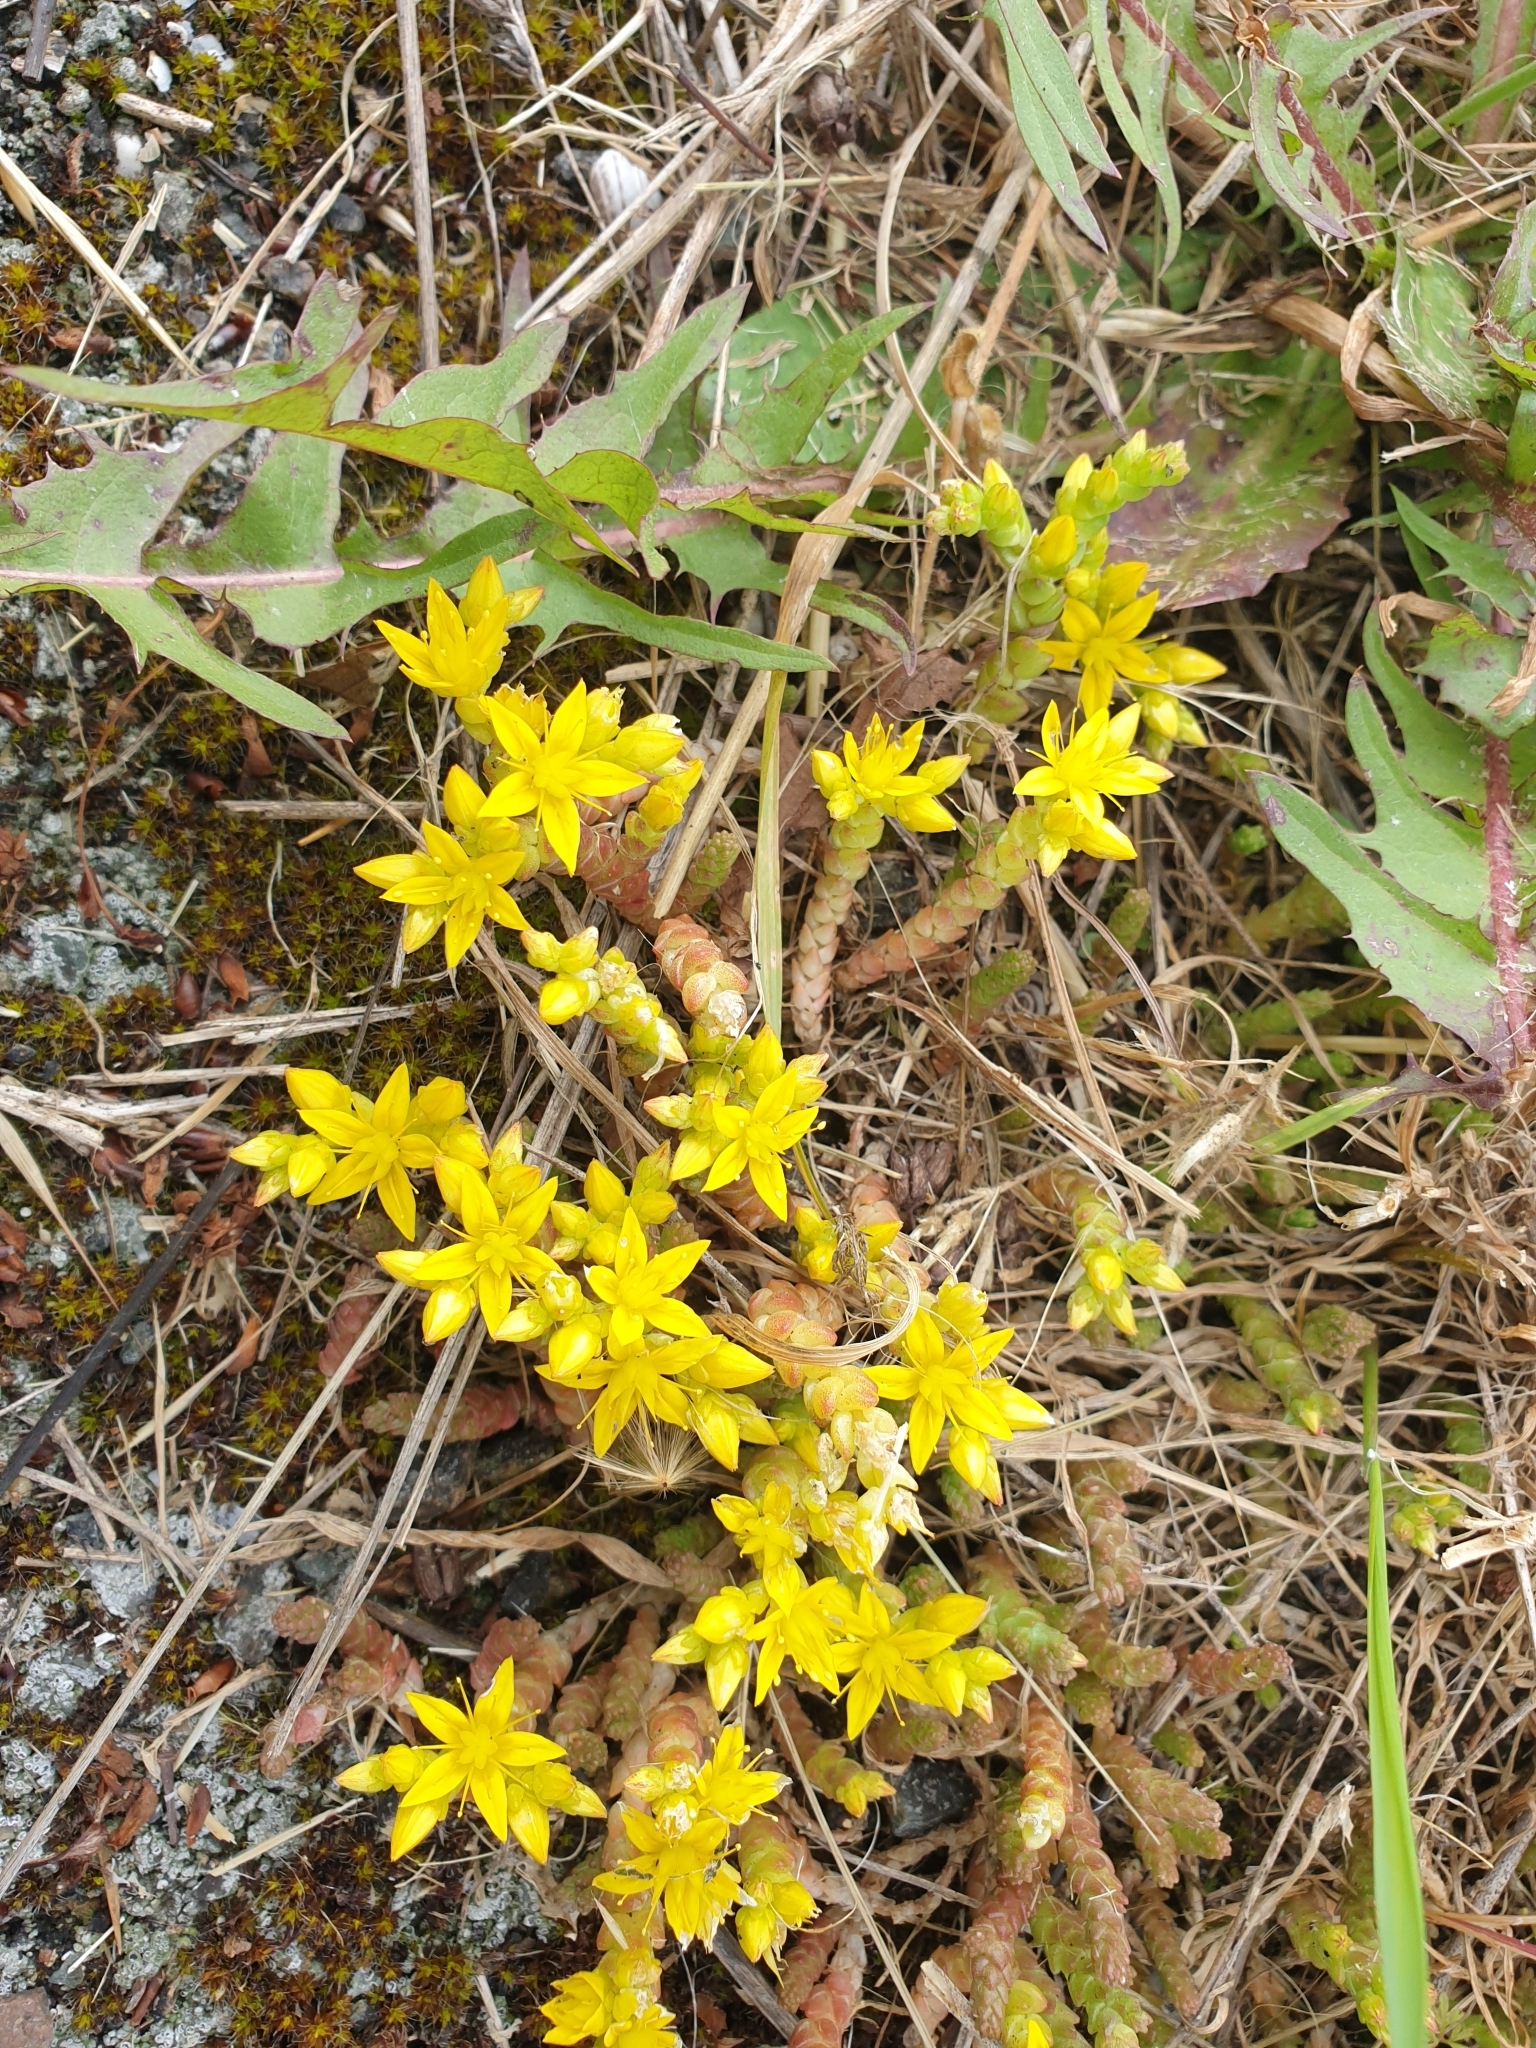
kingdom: Plantae
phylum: Tracheophyta
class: Magnoliopsida
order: Saxifragales
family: Crassulaceae
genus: Sedum
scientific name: Sedum acre
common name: Biting stonecrop
